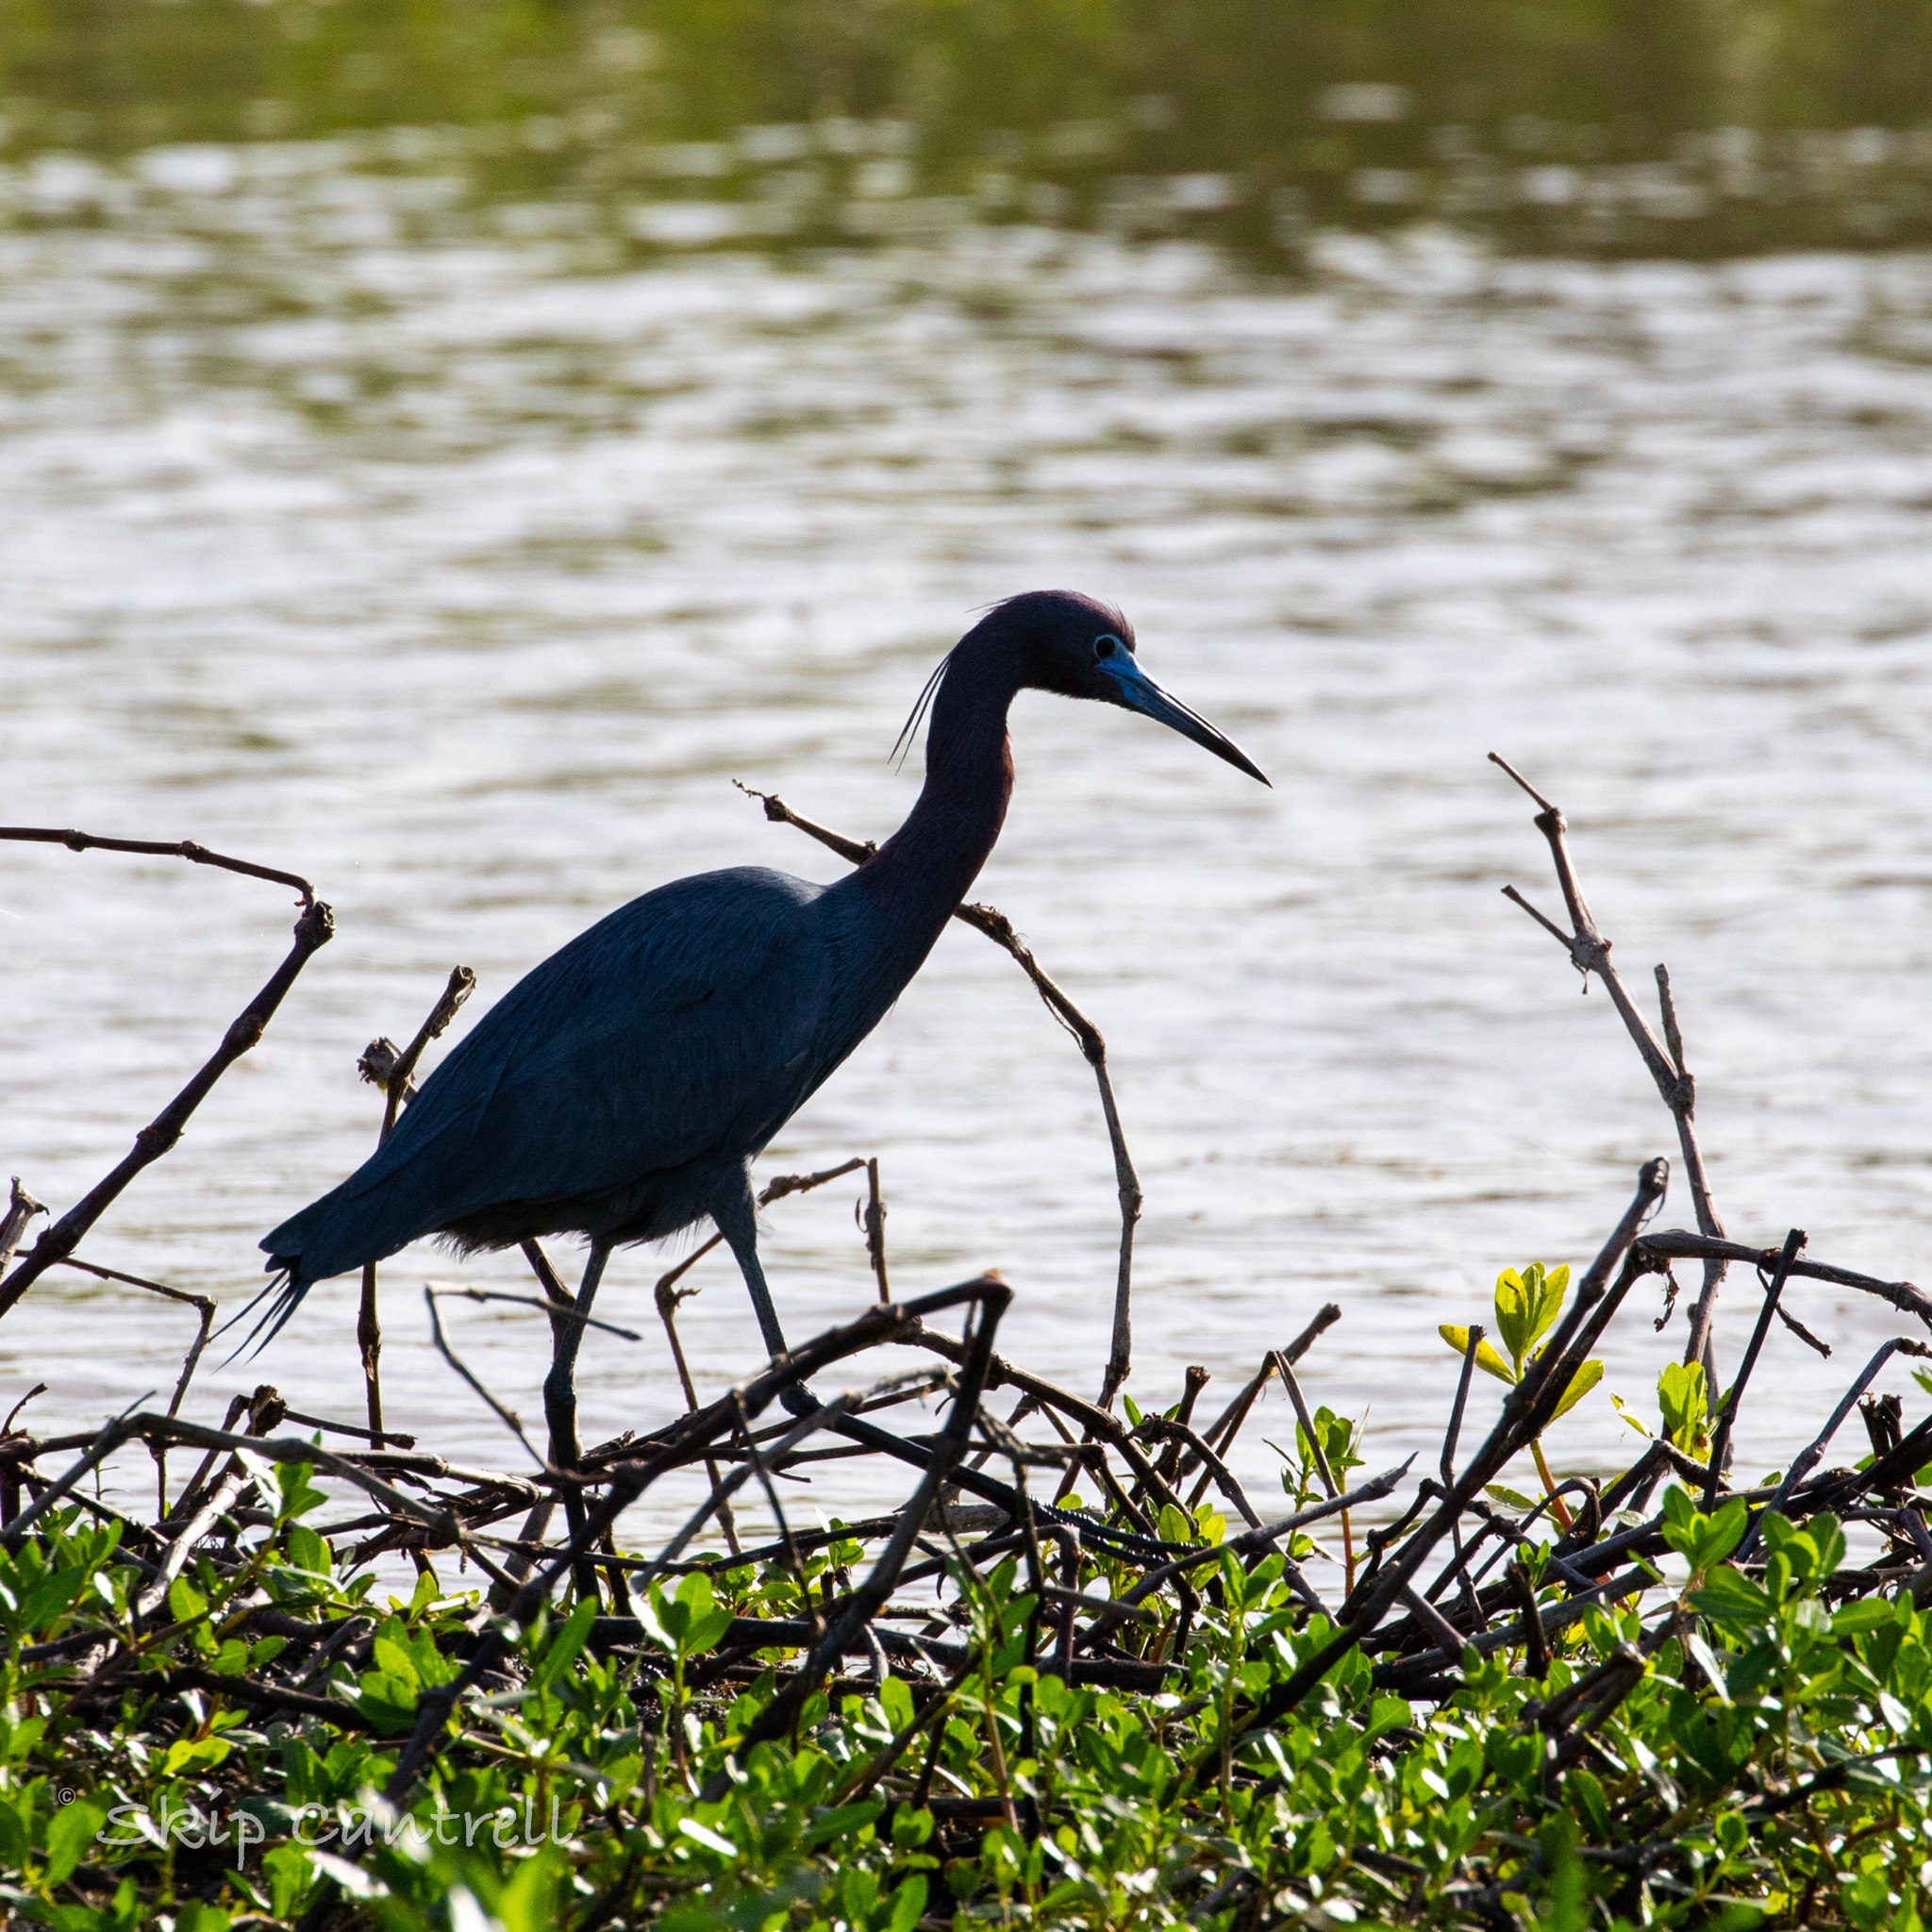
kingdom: Animalia
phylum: Chordata
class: Aves
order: Pelecaniformes
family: Ardeidae
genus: Egretta
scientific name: Egretta caerulea
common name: Little blue heron
